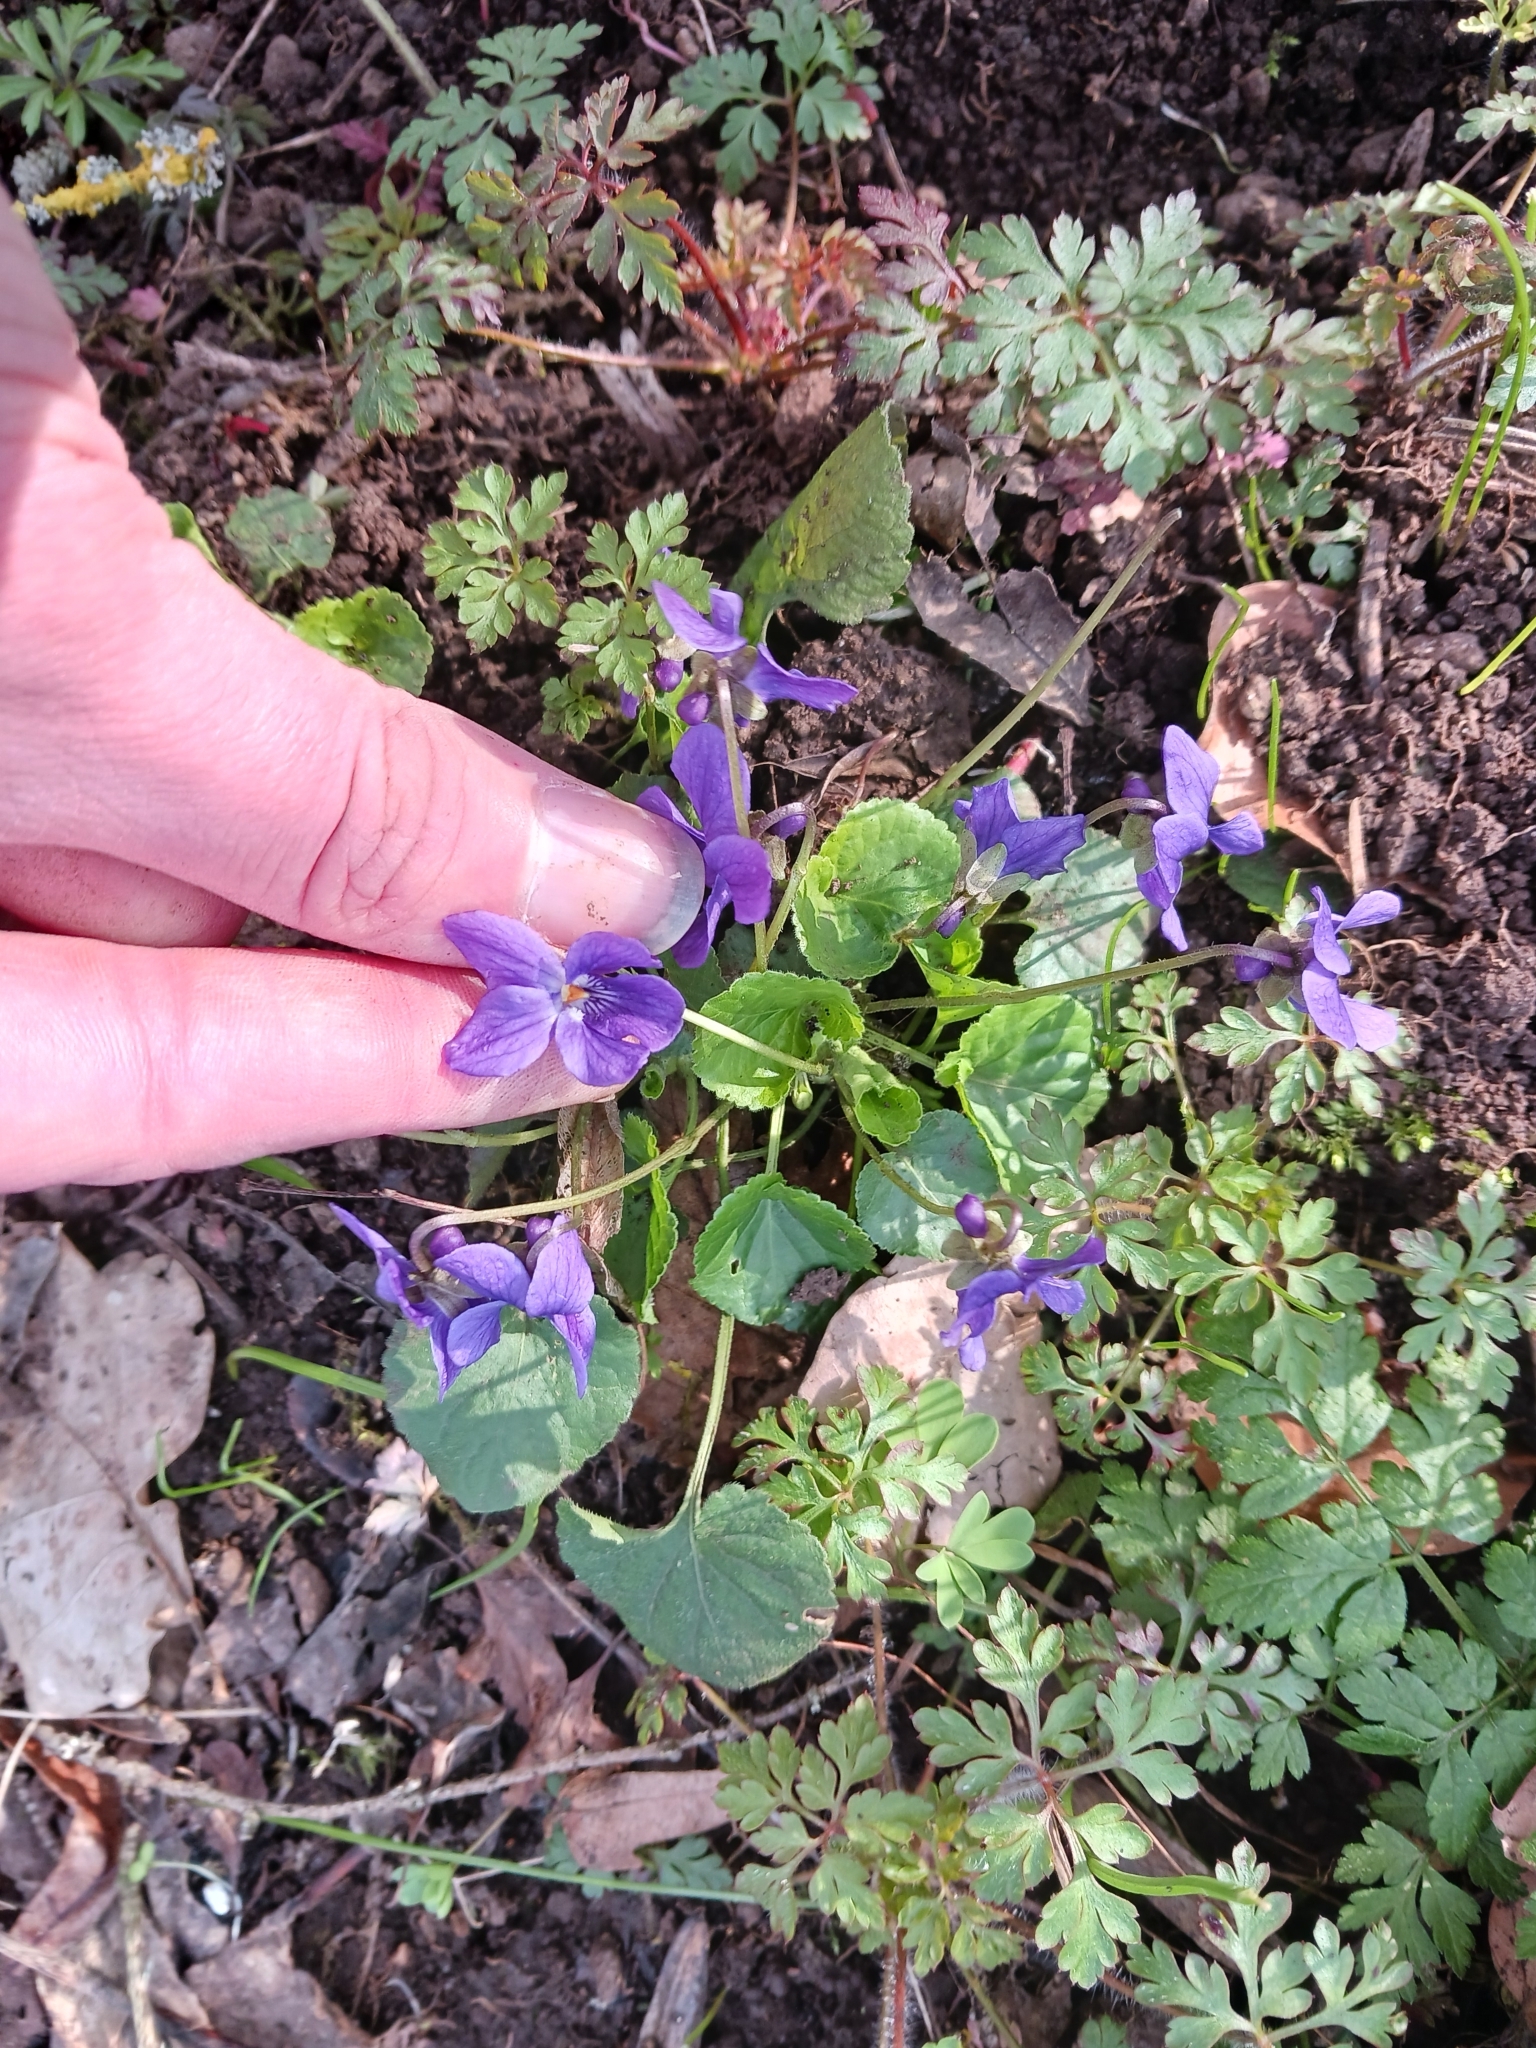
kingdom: Plantae
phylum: Tracheophyta
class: Magnoliopsida
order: Malpighiales
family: Violaceae
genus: Viola
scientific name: Viola odorata
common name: Sweet violet
